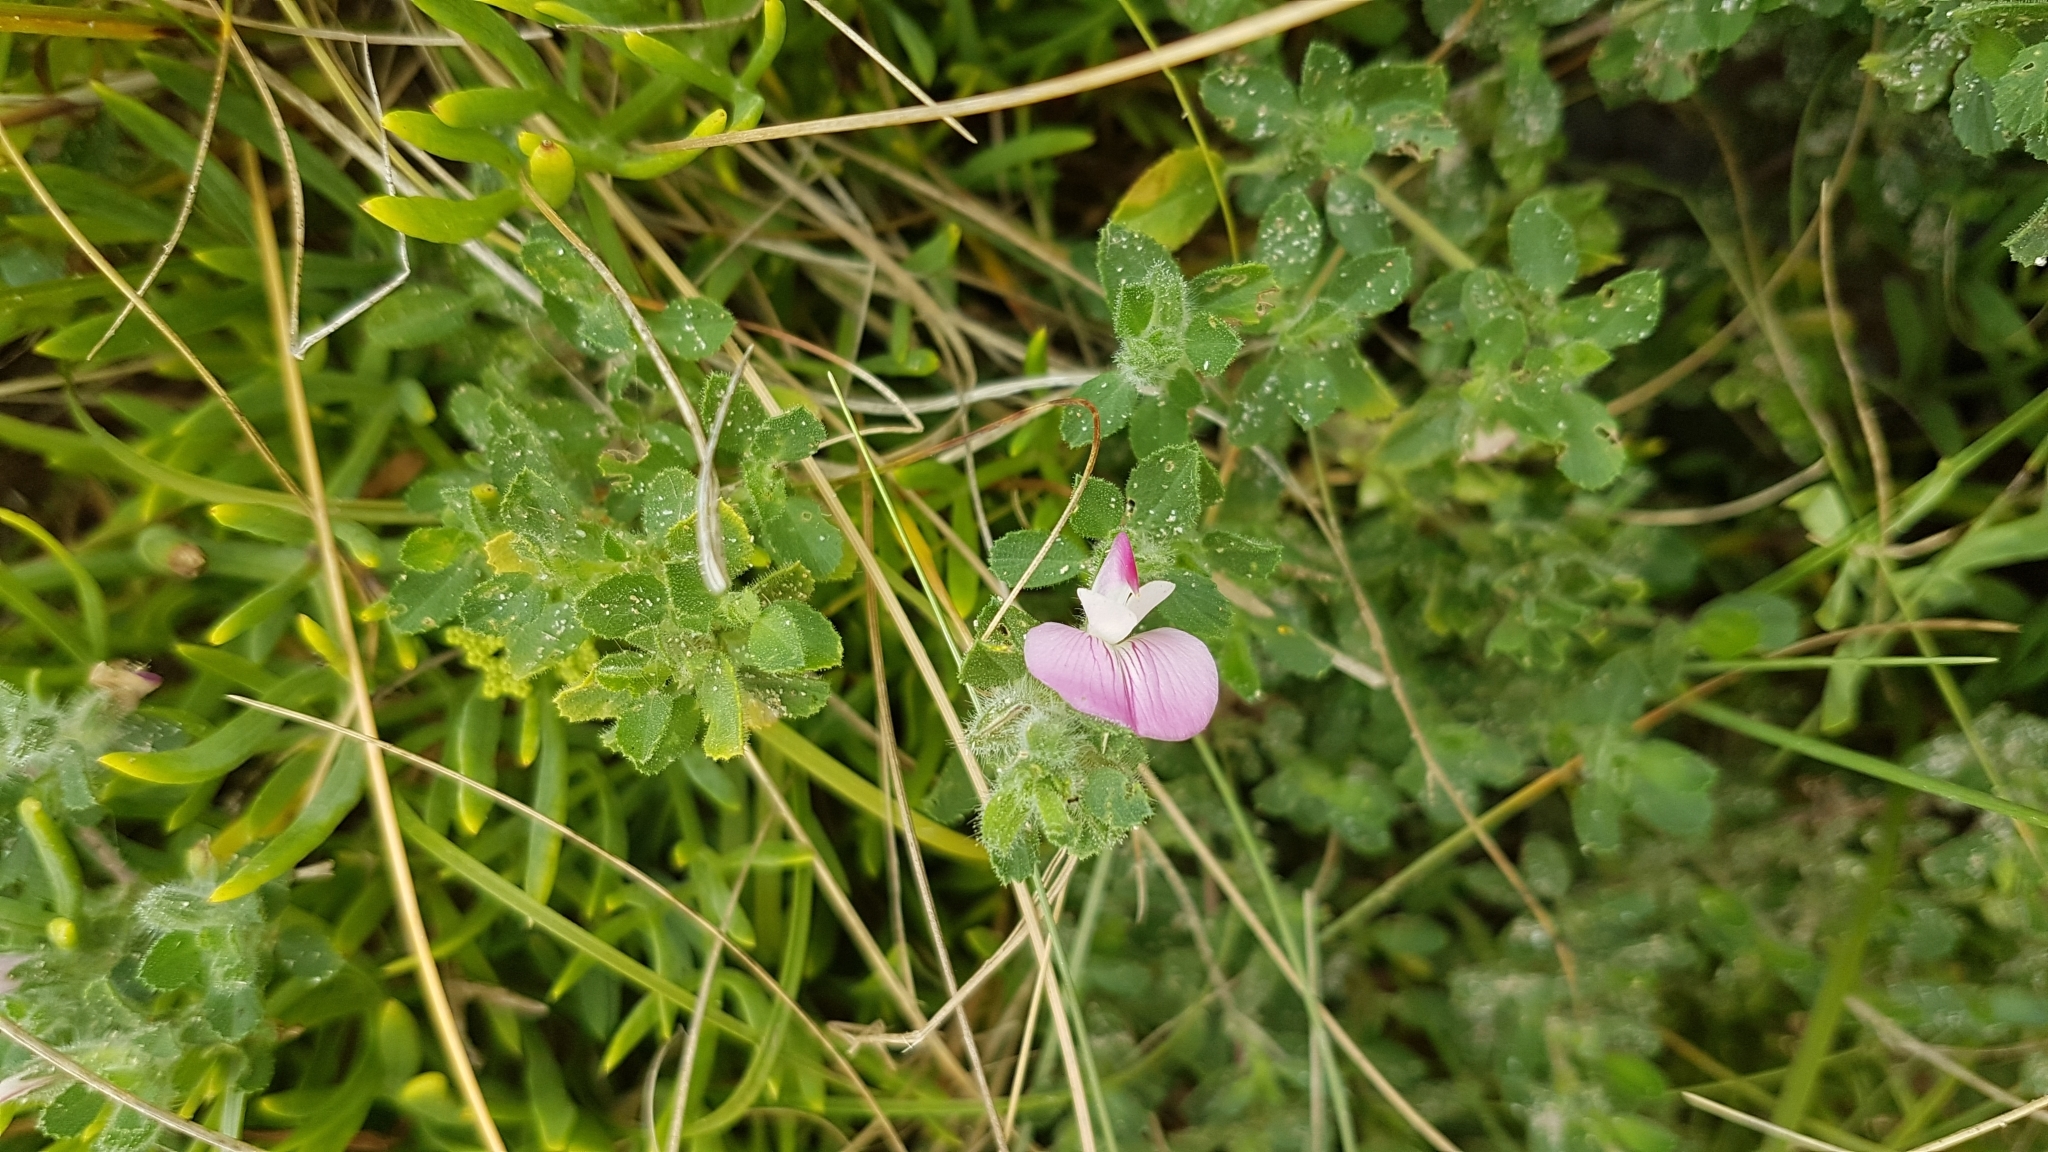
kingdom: Plantae
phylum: Tracheophyta
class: Magnoliopsida
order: Fabales
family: Fabaceae
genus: Ononis
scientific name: Ononis spinosa
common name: Spiny restharrow
